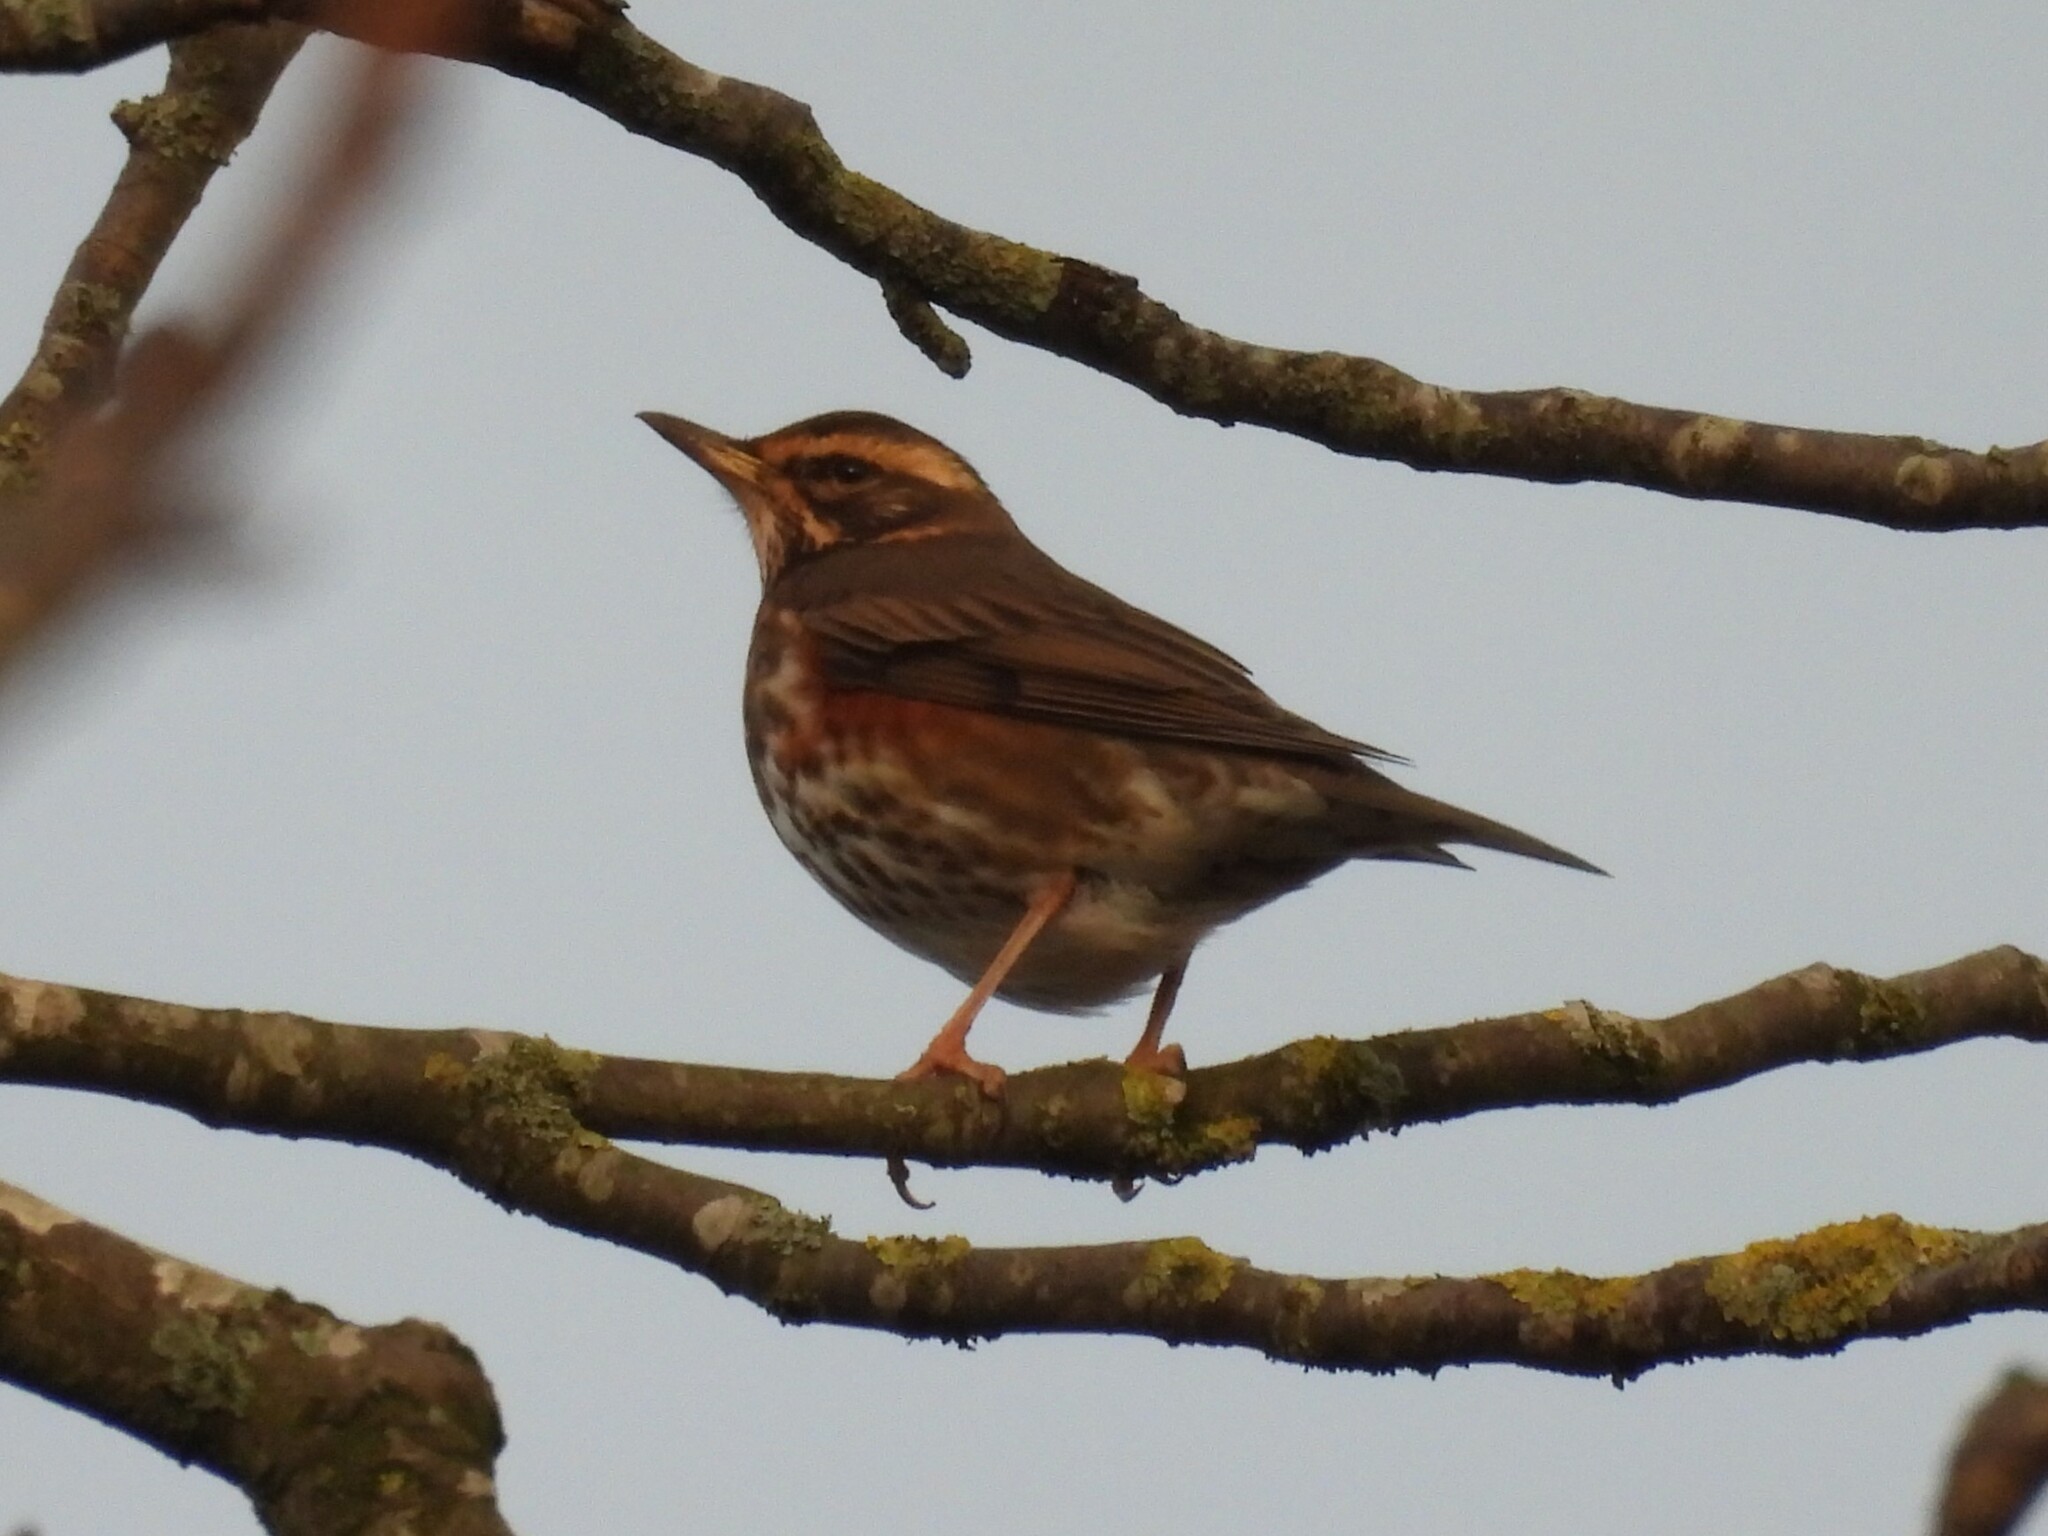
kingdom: Animalia
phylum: Chordata
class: Aves
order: Passeriformes
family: Turdidae
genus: Turdus
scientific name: Turdus iliacus
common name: Redwing
